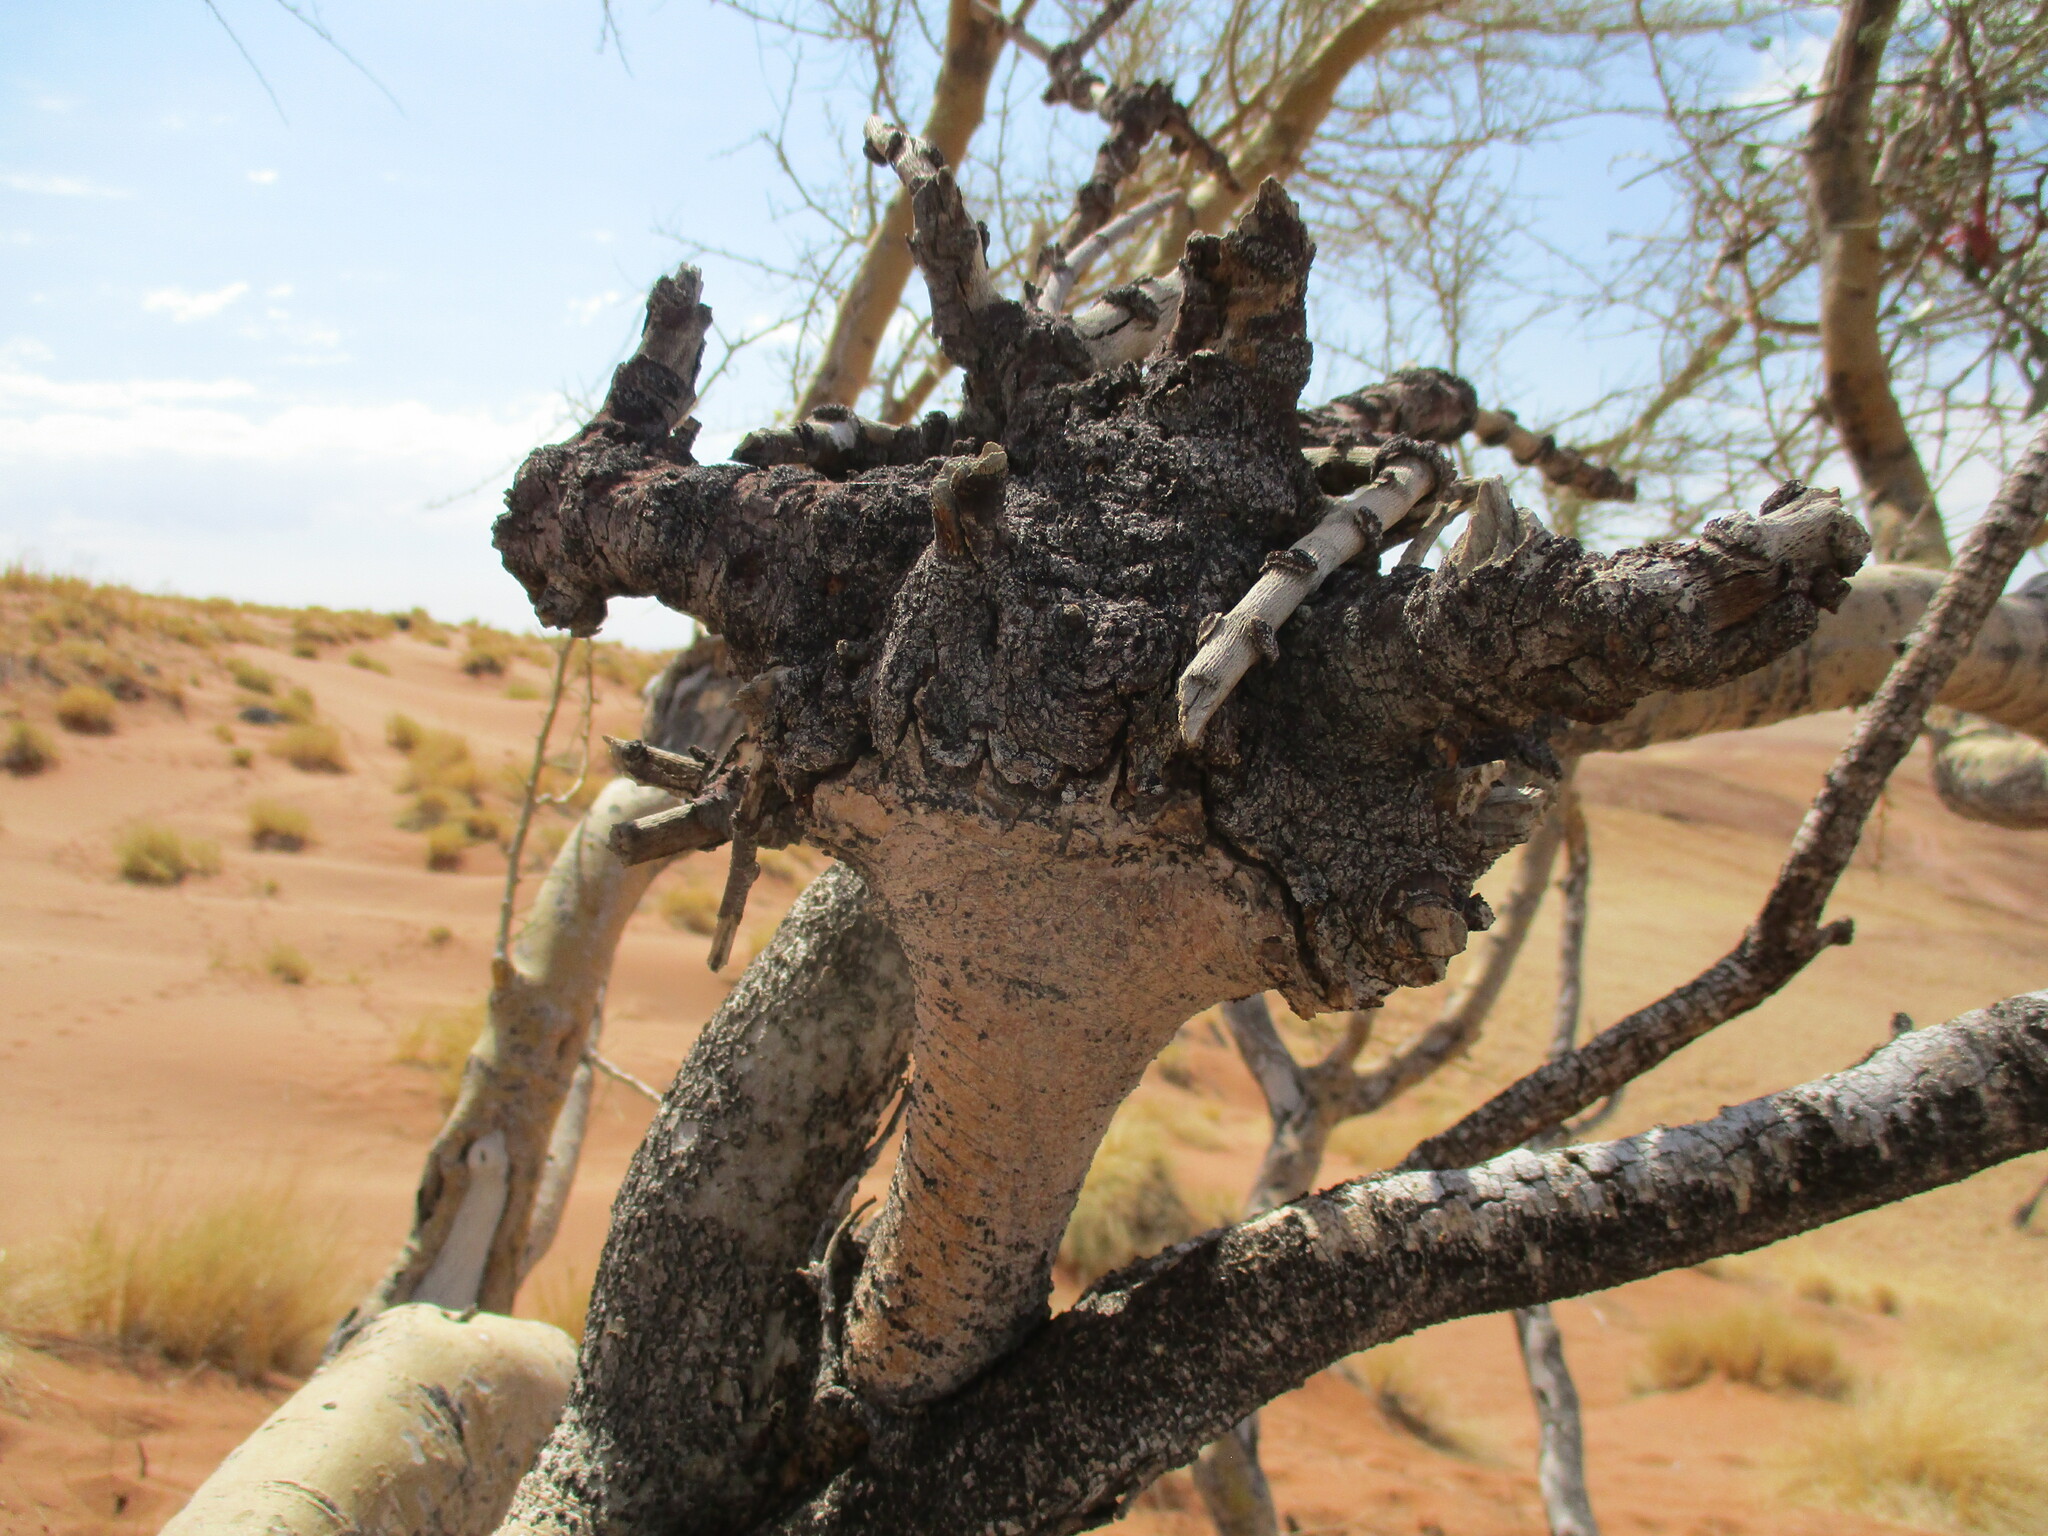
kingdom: Plantae
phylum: Tracheophyta
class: Magnoliopsida
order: Santalales
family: Loranthaceae
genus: Tapinanthus
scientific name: Tapinanthus oleifolius
